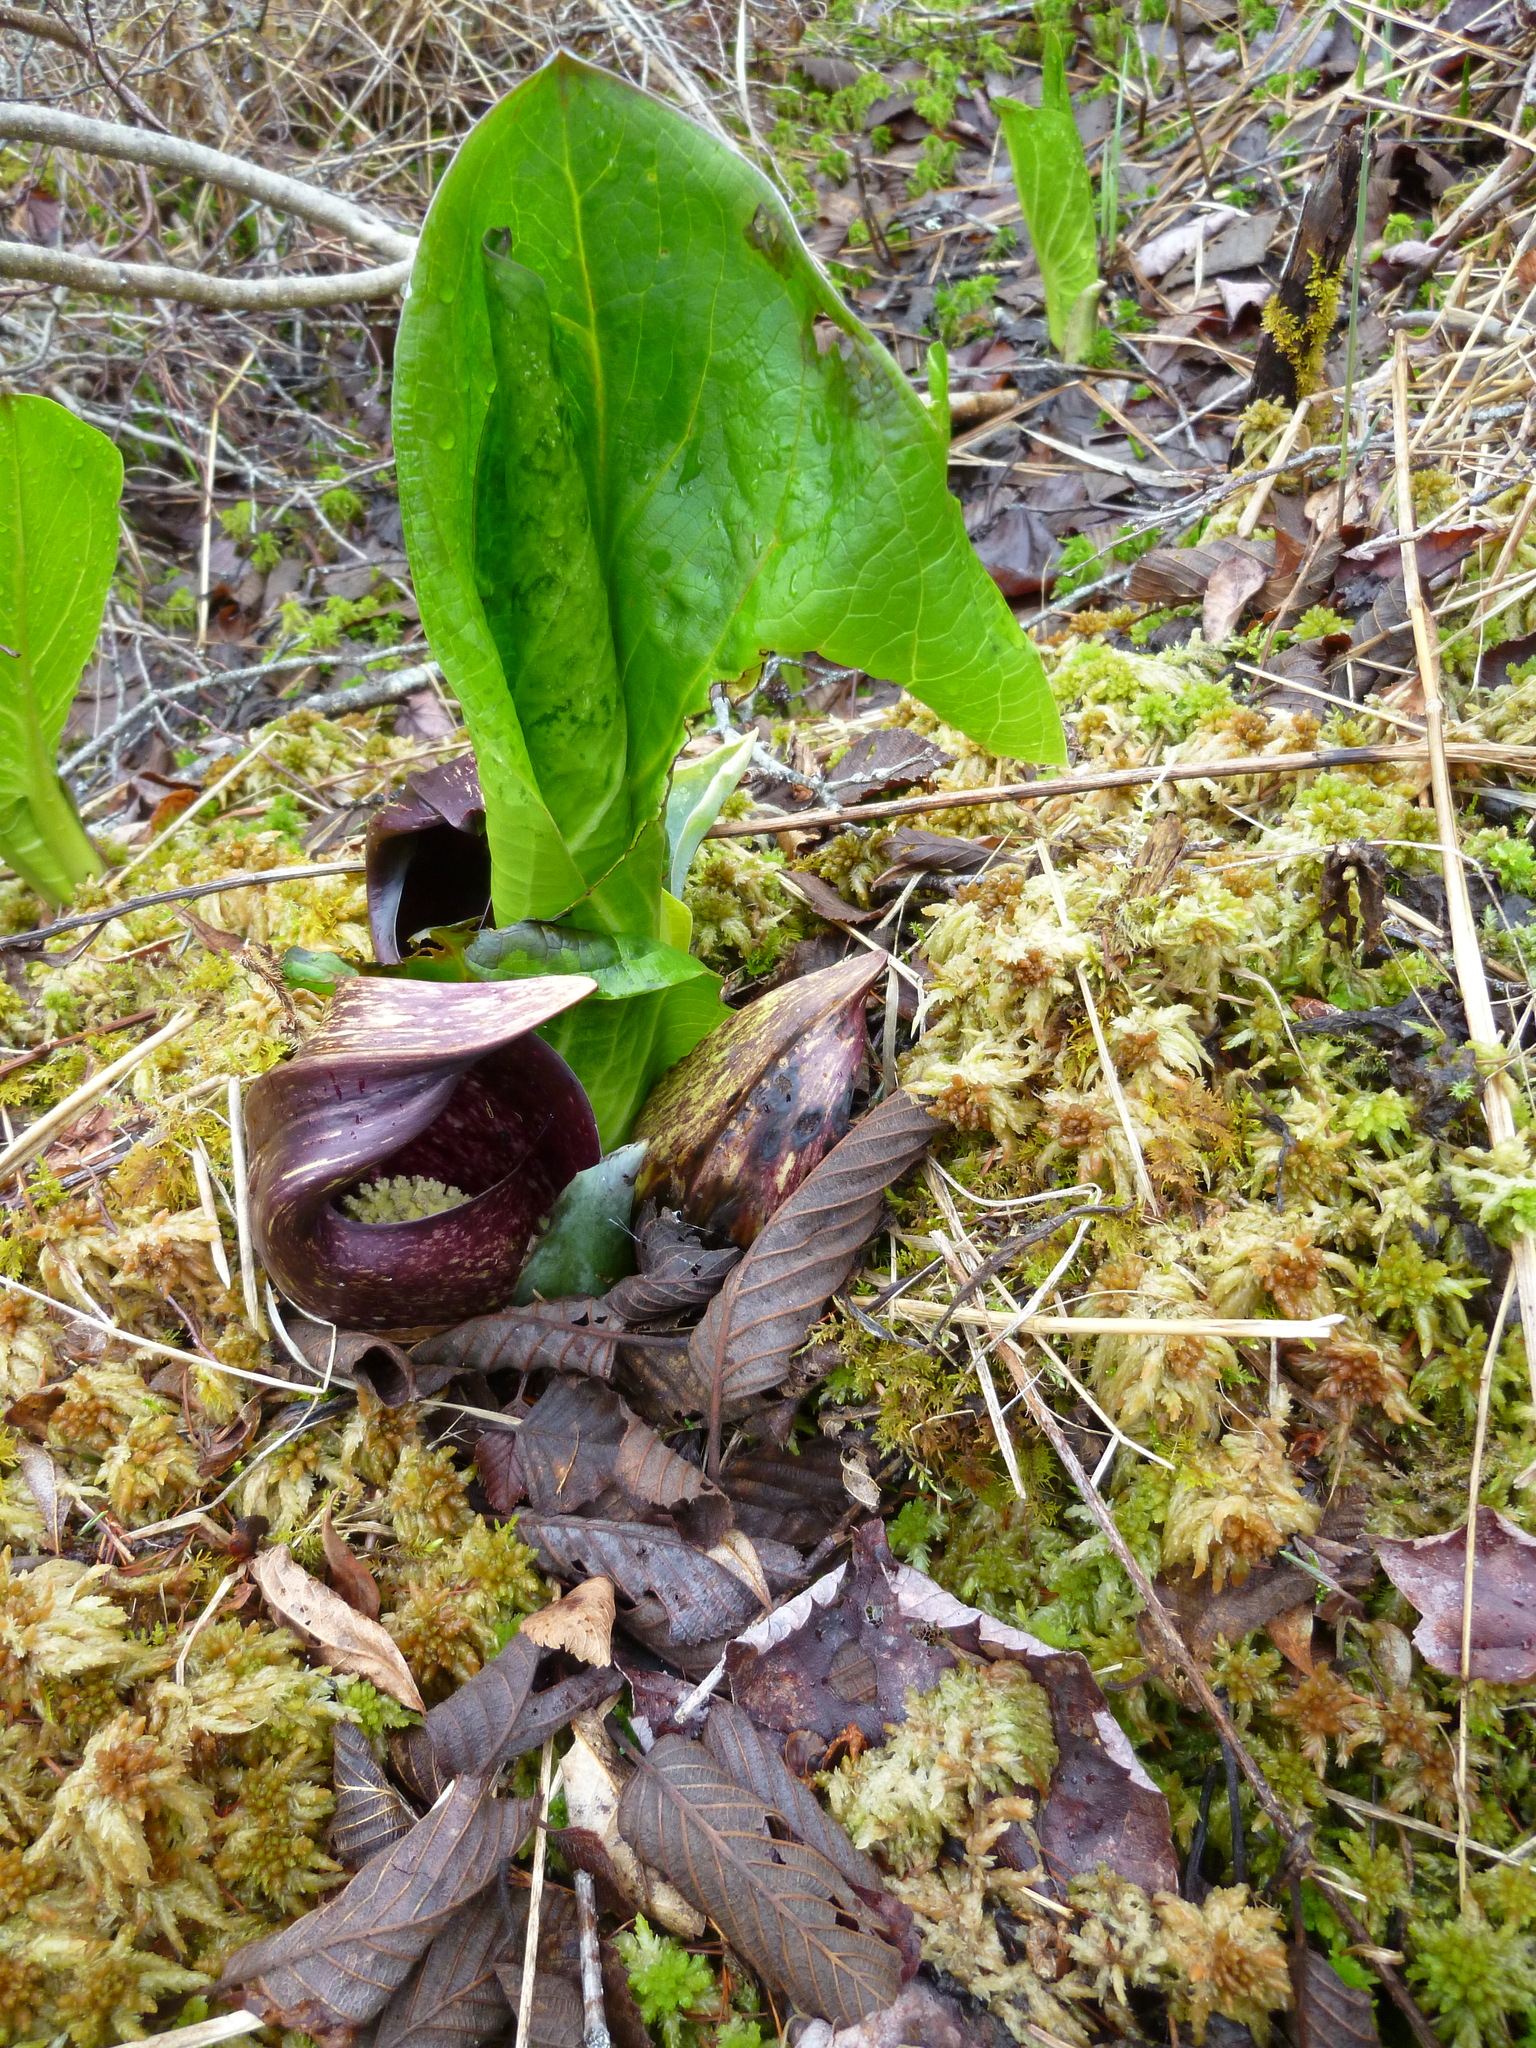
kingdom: Plantae
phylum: Tracheophyta
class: Liliopsida
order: Alismatales
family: Araceae
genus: Symplocarpus
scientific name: Symplocarpus foetidus
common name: Eastern skunk cabbage
